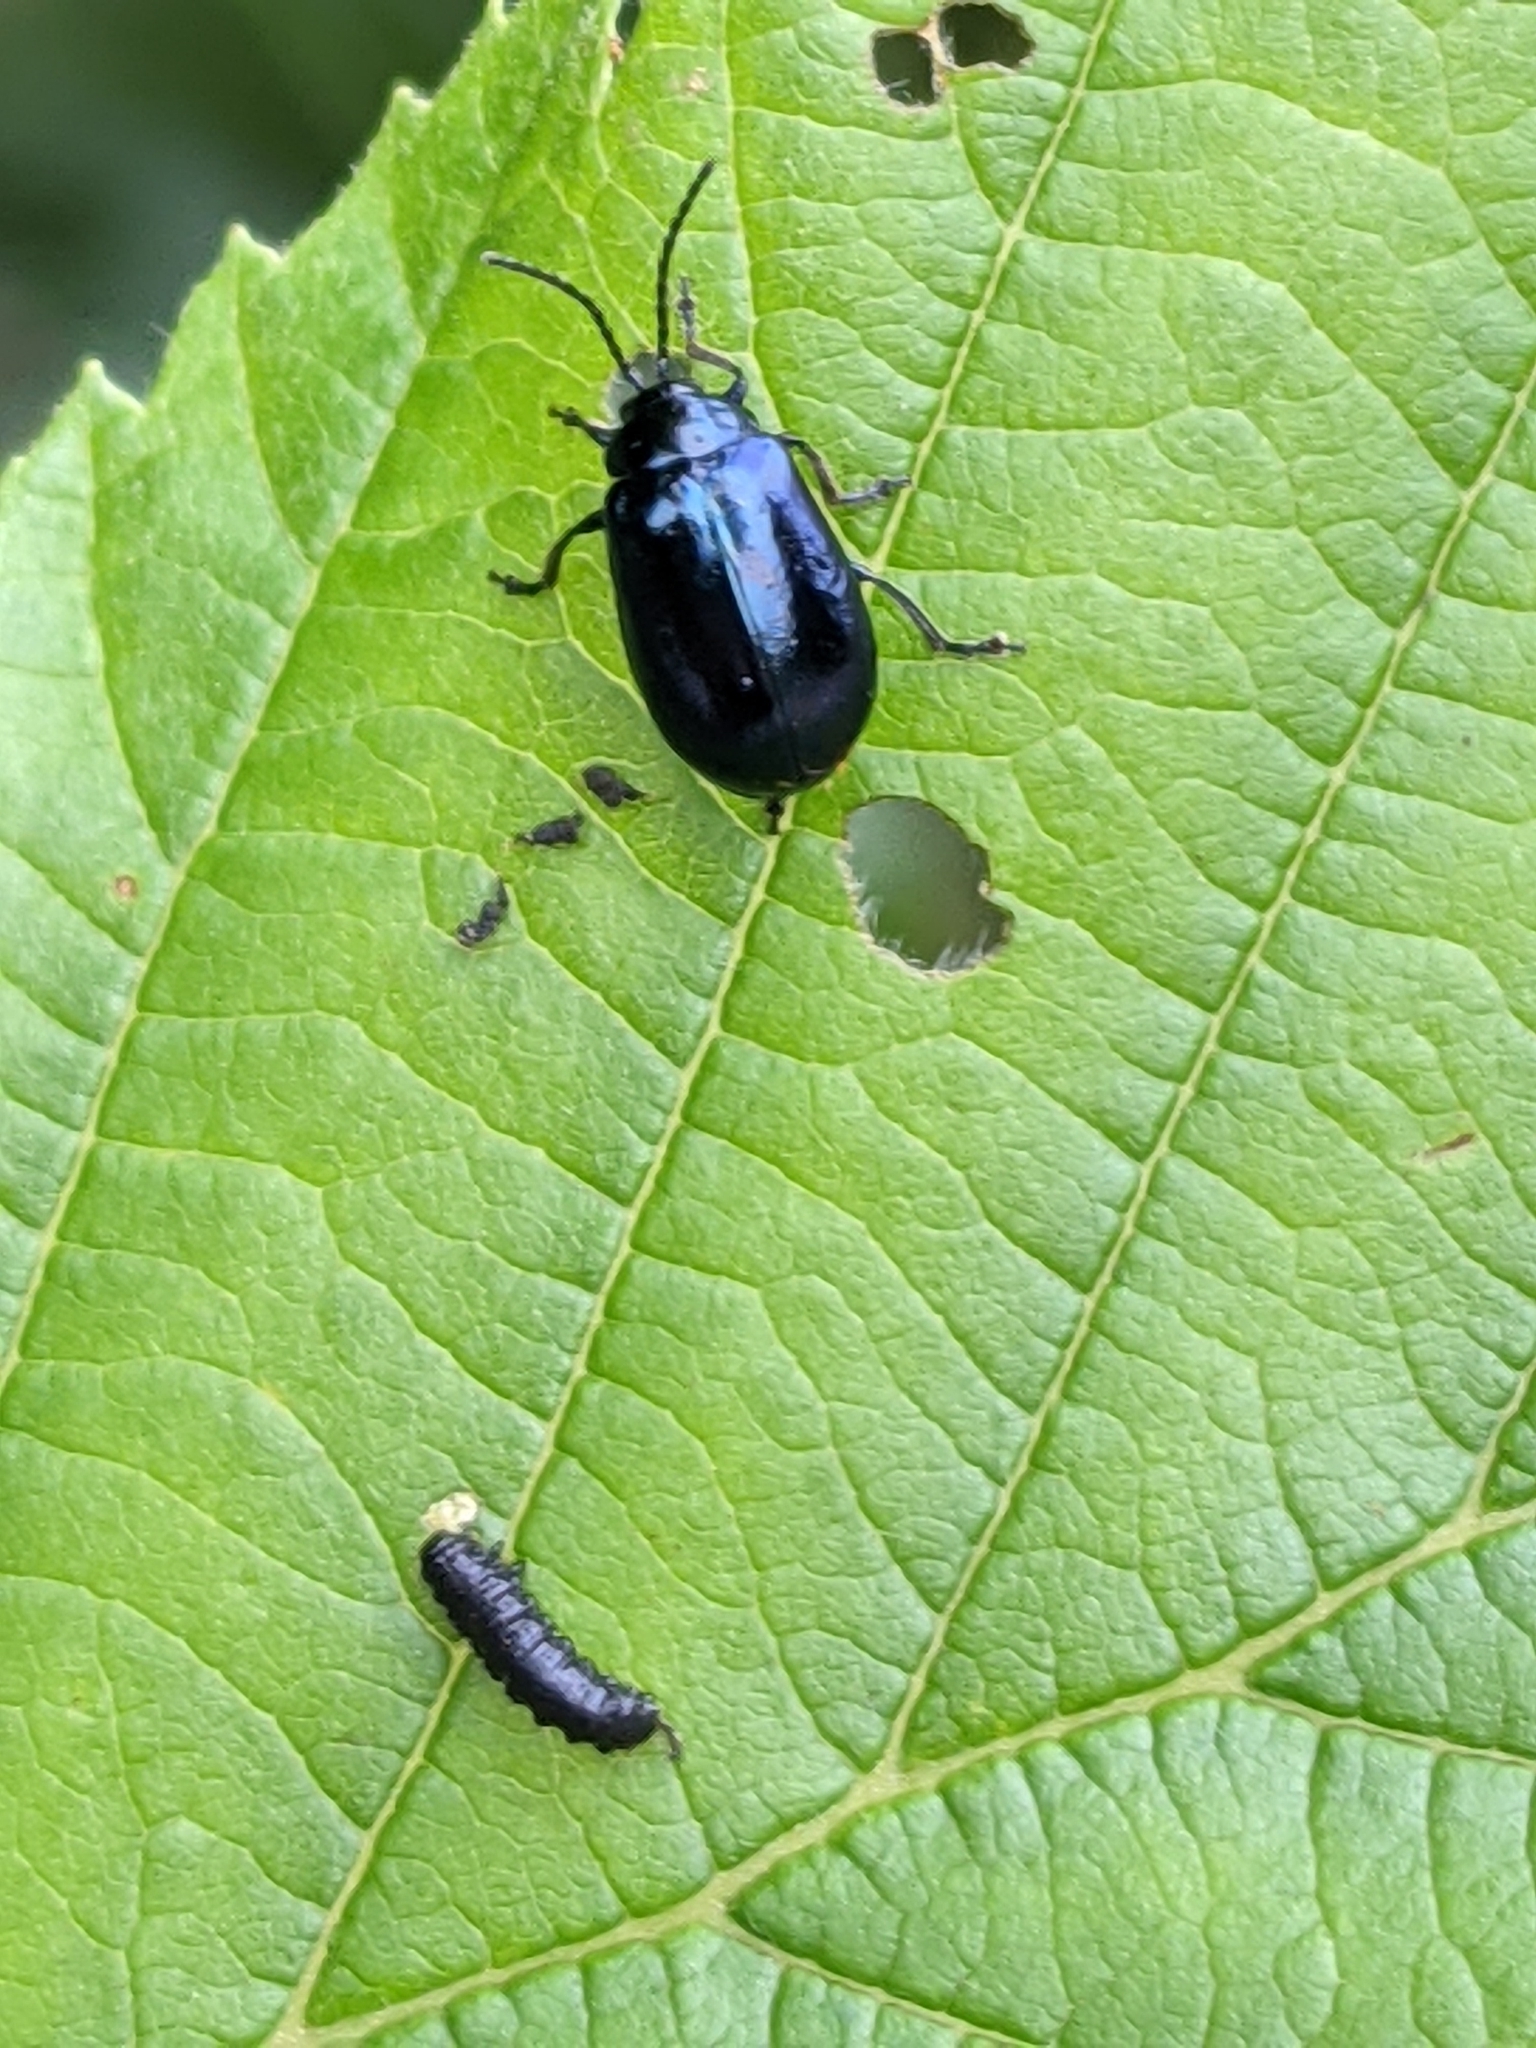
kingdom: Animalia
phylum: Arthropoda
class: Insecta
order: Coleoptera
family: Chrysomelidae
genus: Agelastica
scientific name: Agelastica alni
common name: Alder leaf beetle
